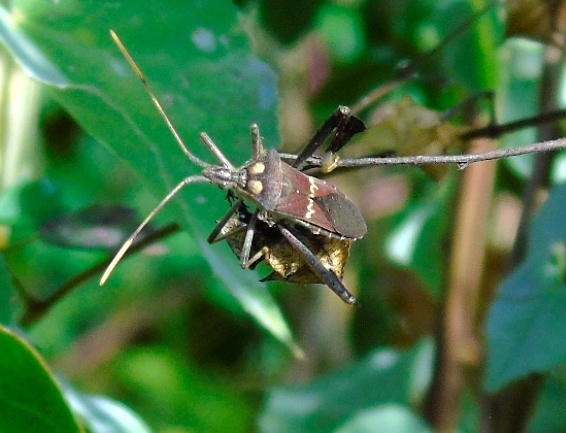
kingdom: Animalia
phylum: Arthropoda
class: Insecta
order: Hemiptera
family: Coreidae
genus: Leptoglossus
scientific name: Leptoglossus zonatus
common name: Large-legged bug
